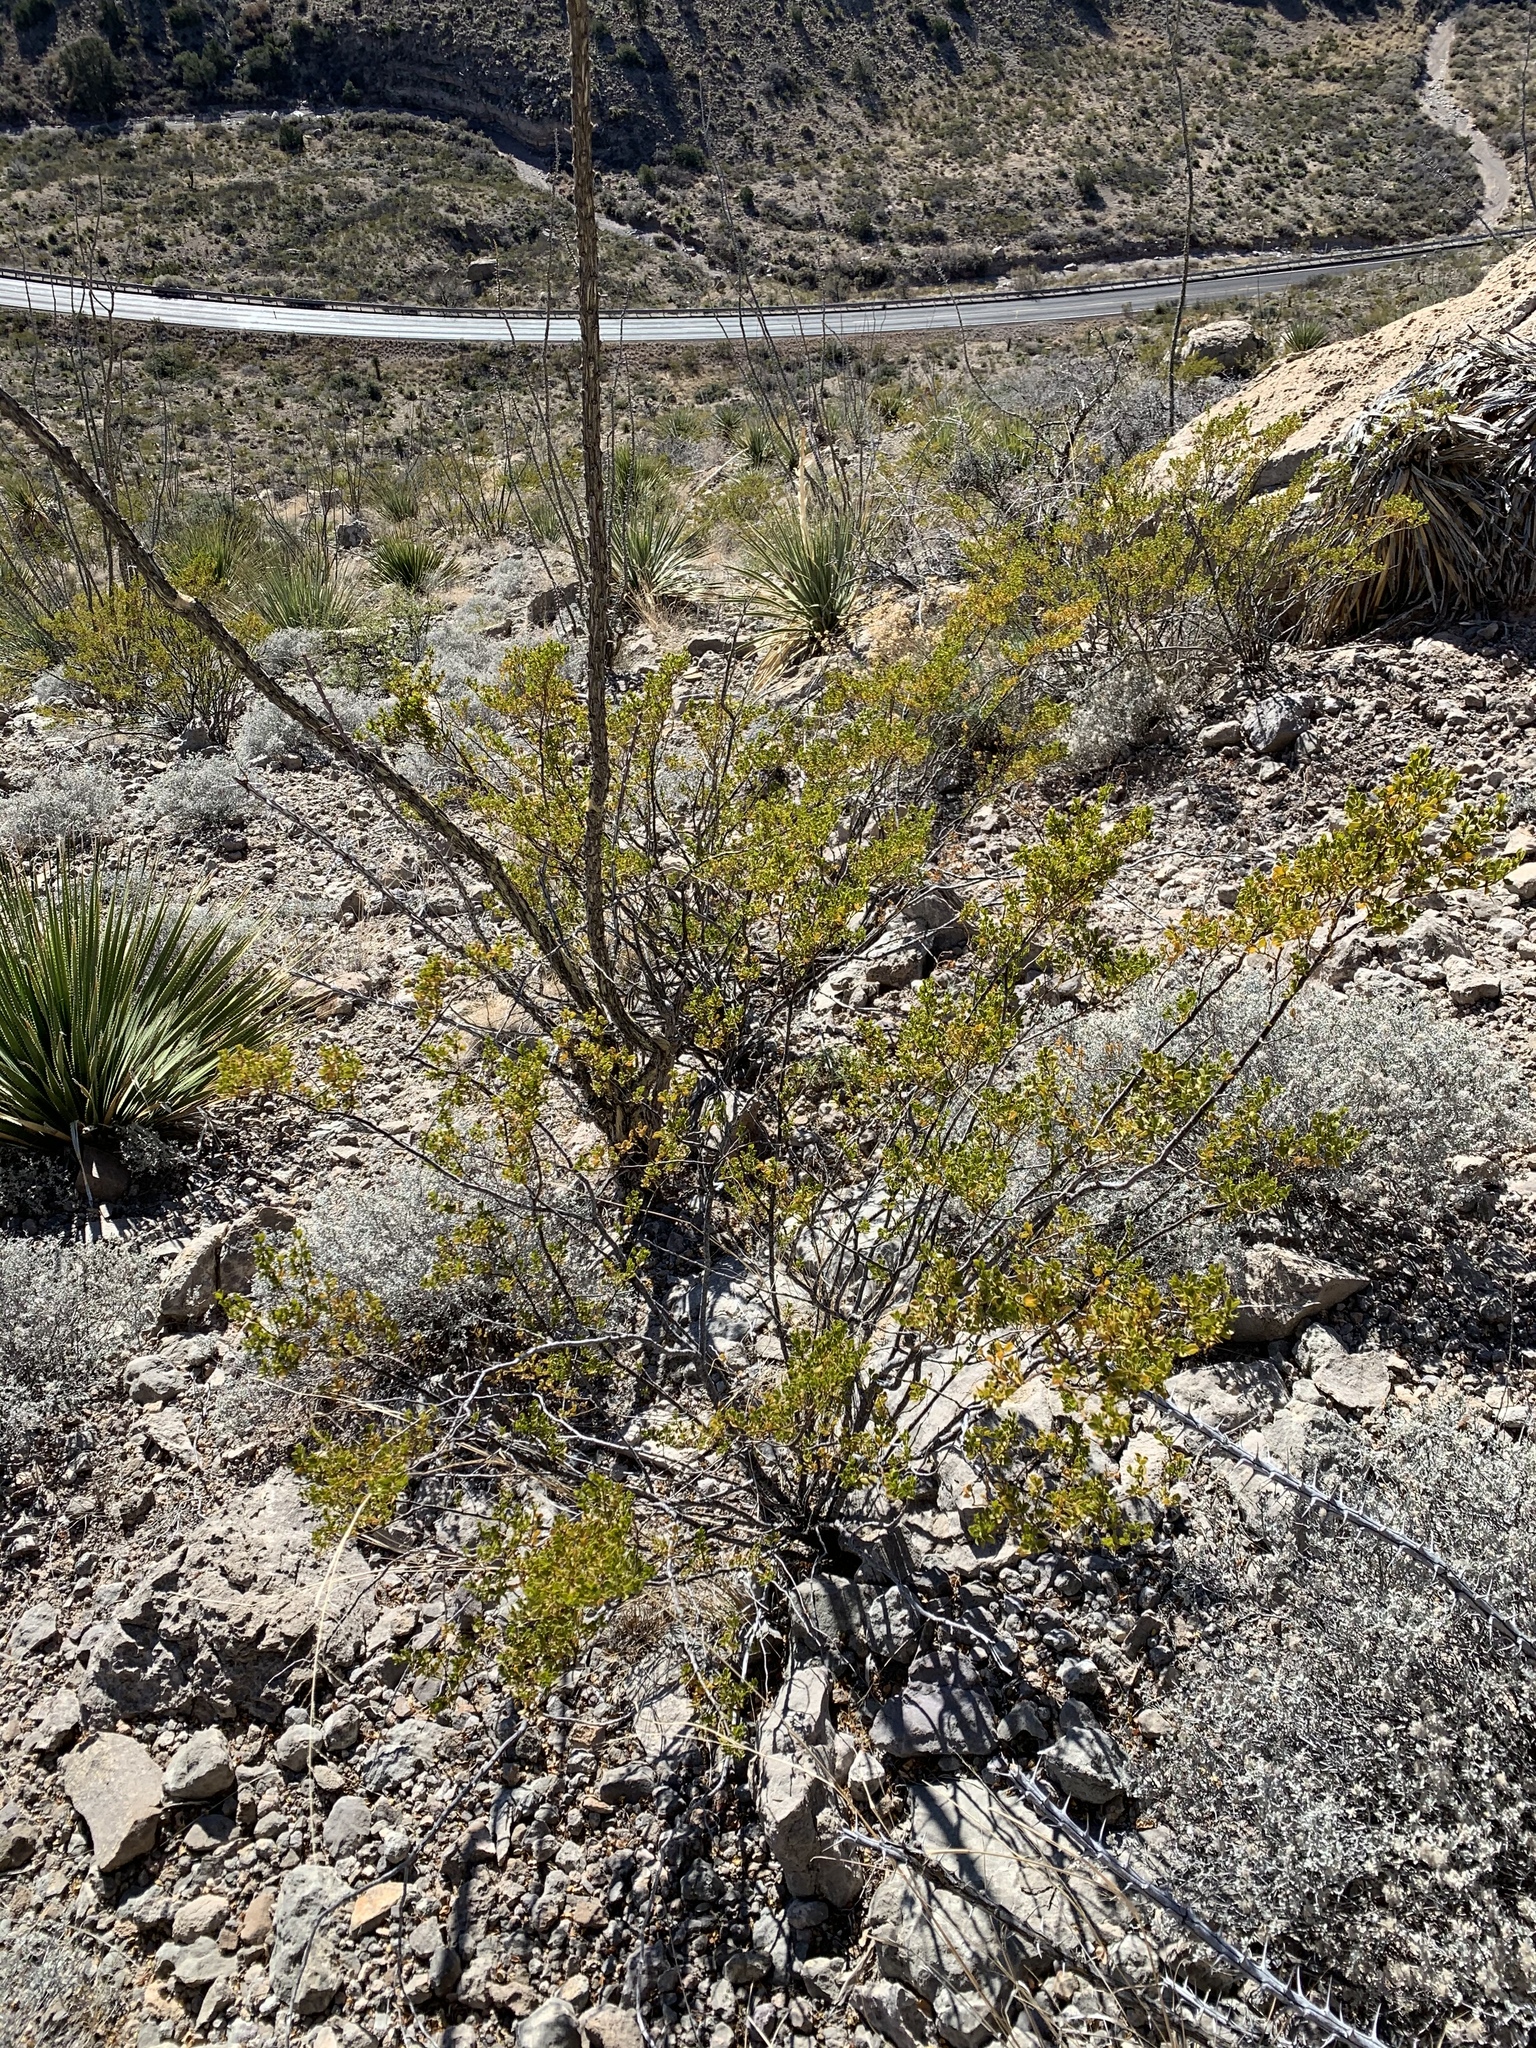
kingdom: Plantae
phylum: Tracheophyta
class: Magnoliopsida
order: Zygophyllales
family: Zygophyllaceae
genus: Larrea
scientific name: Larrea tridentata
